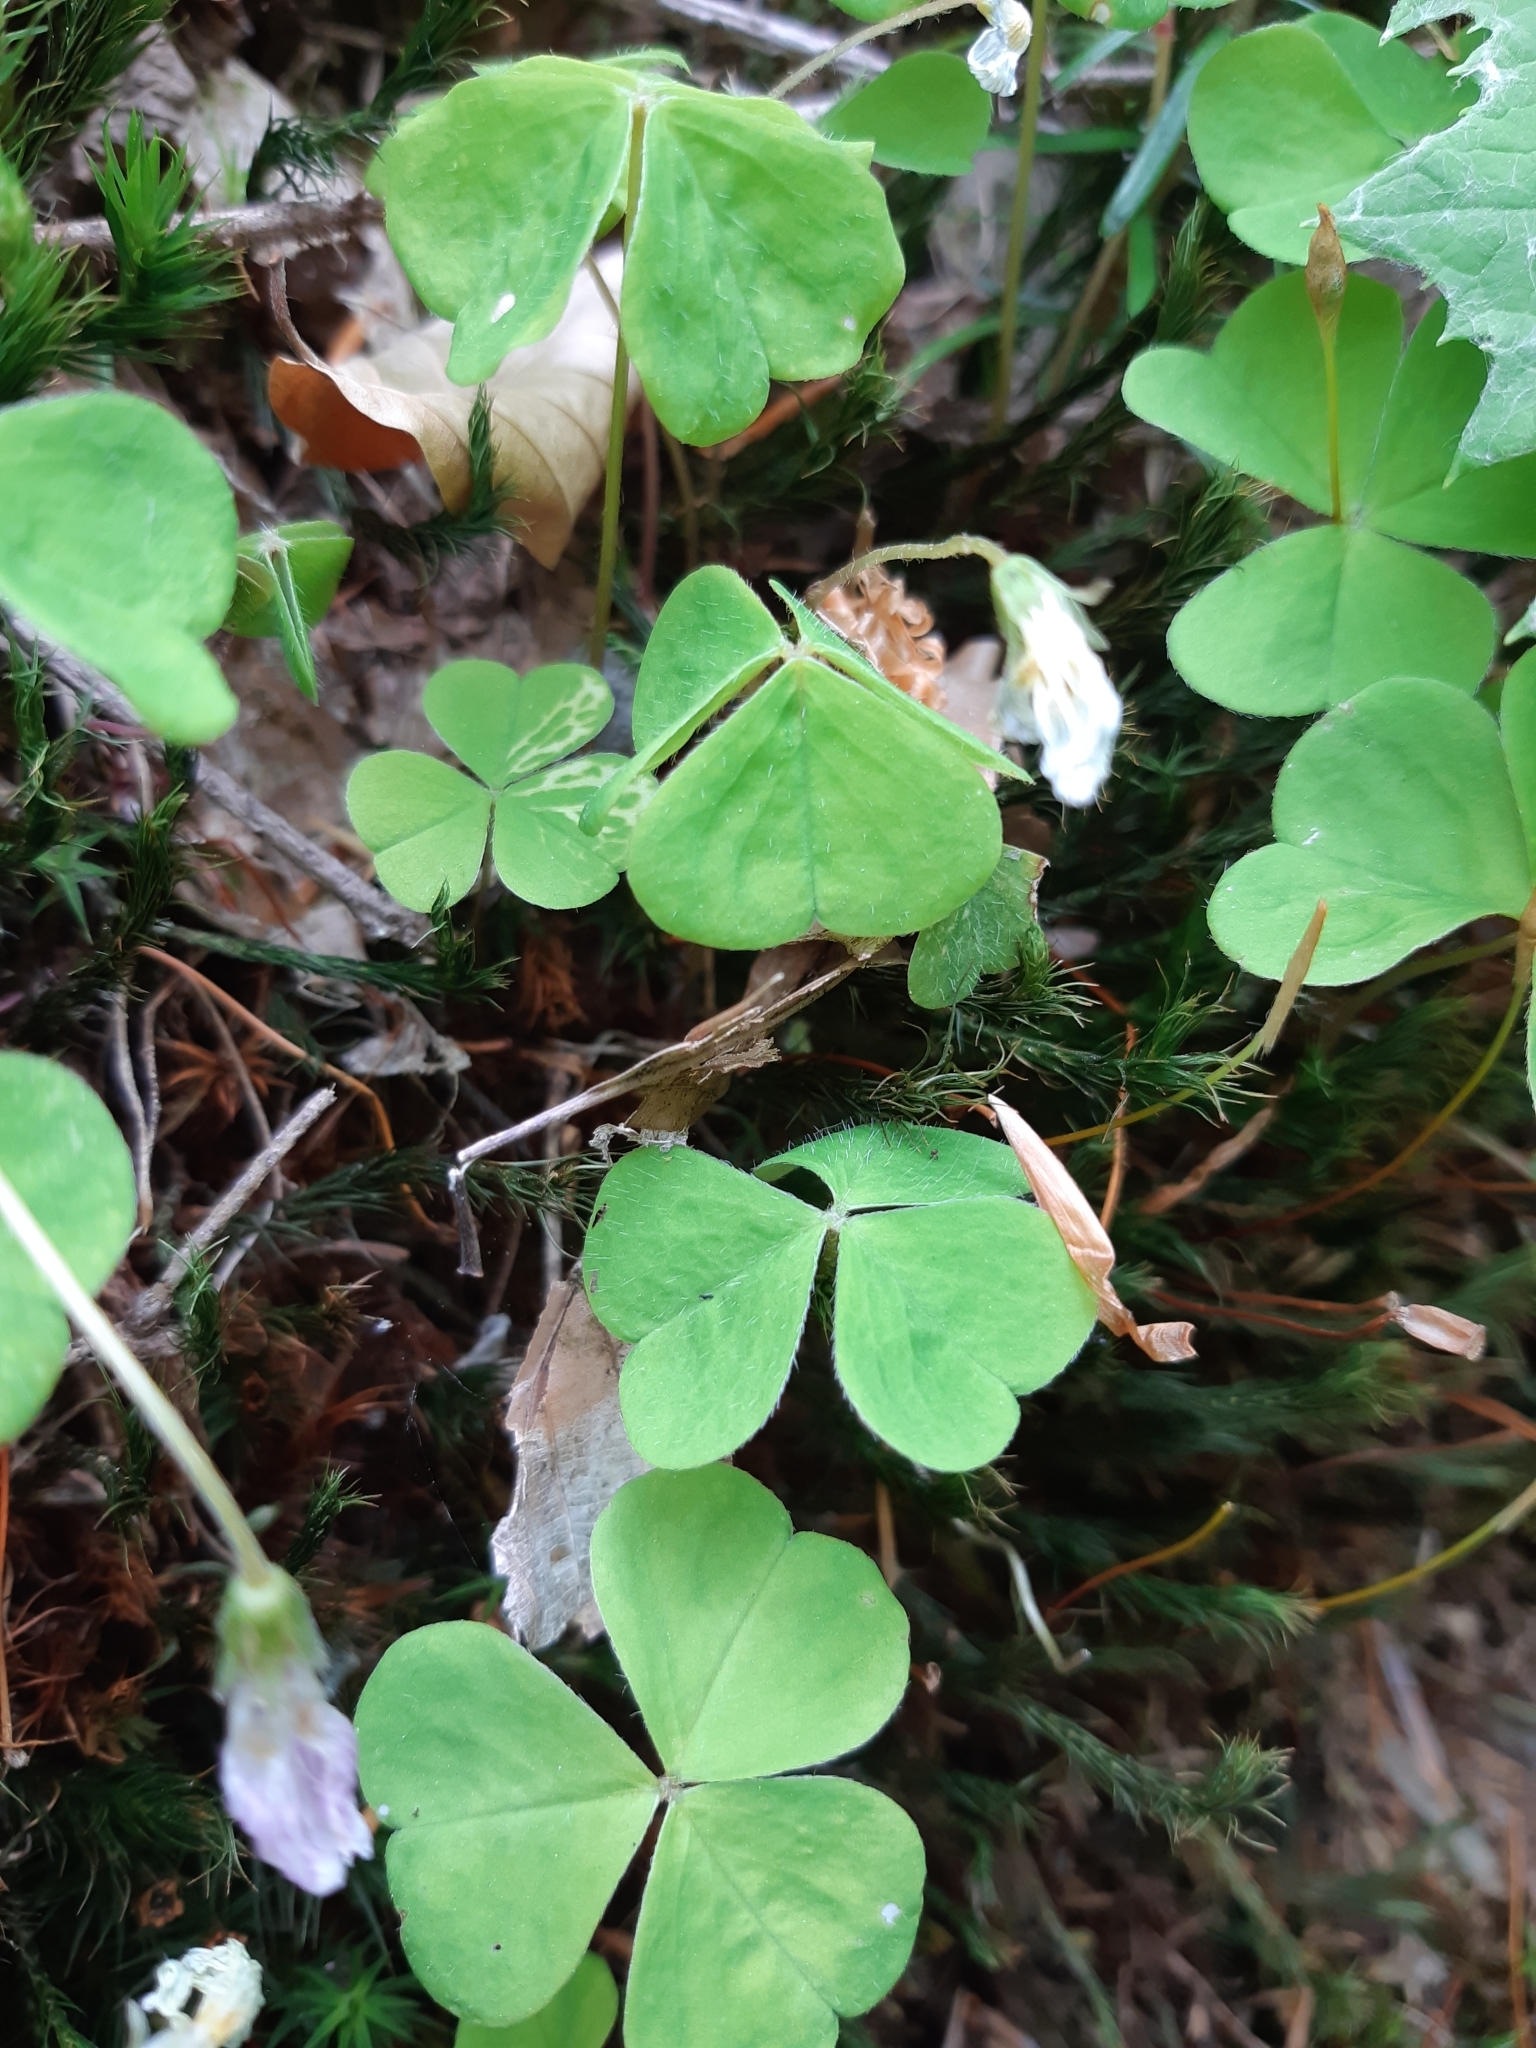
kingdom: Plantae
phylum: Tracheophyta
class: Magnoliopsida
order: Oxalidales
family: Oxalidaceae
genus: Oxalis
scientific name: Oxalis acetosella
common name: Wood-sorrel
